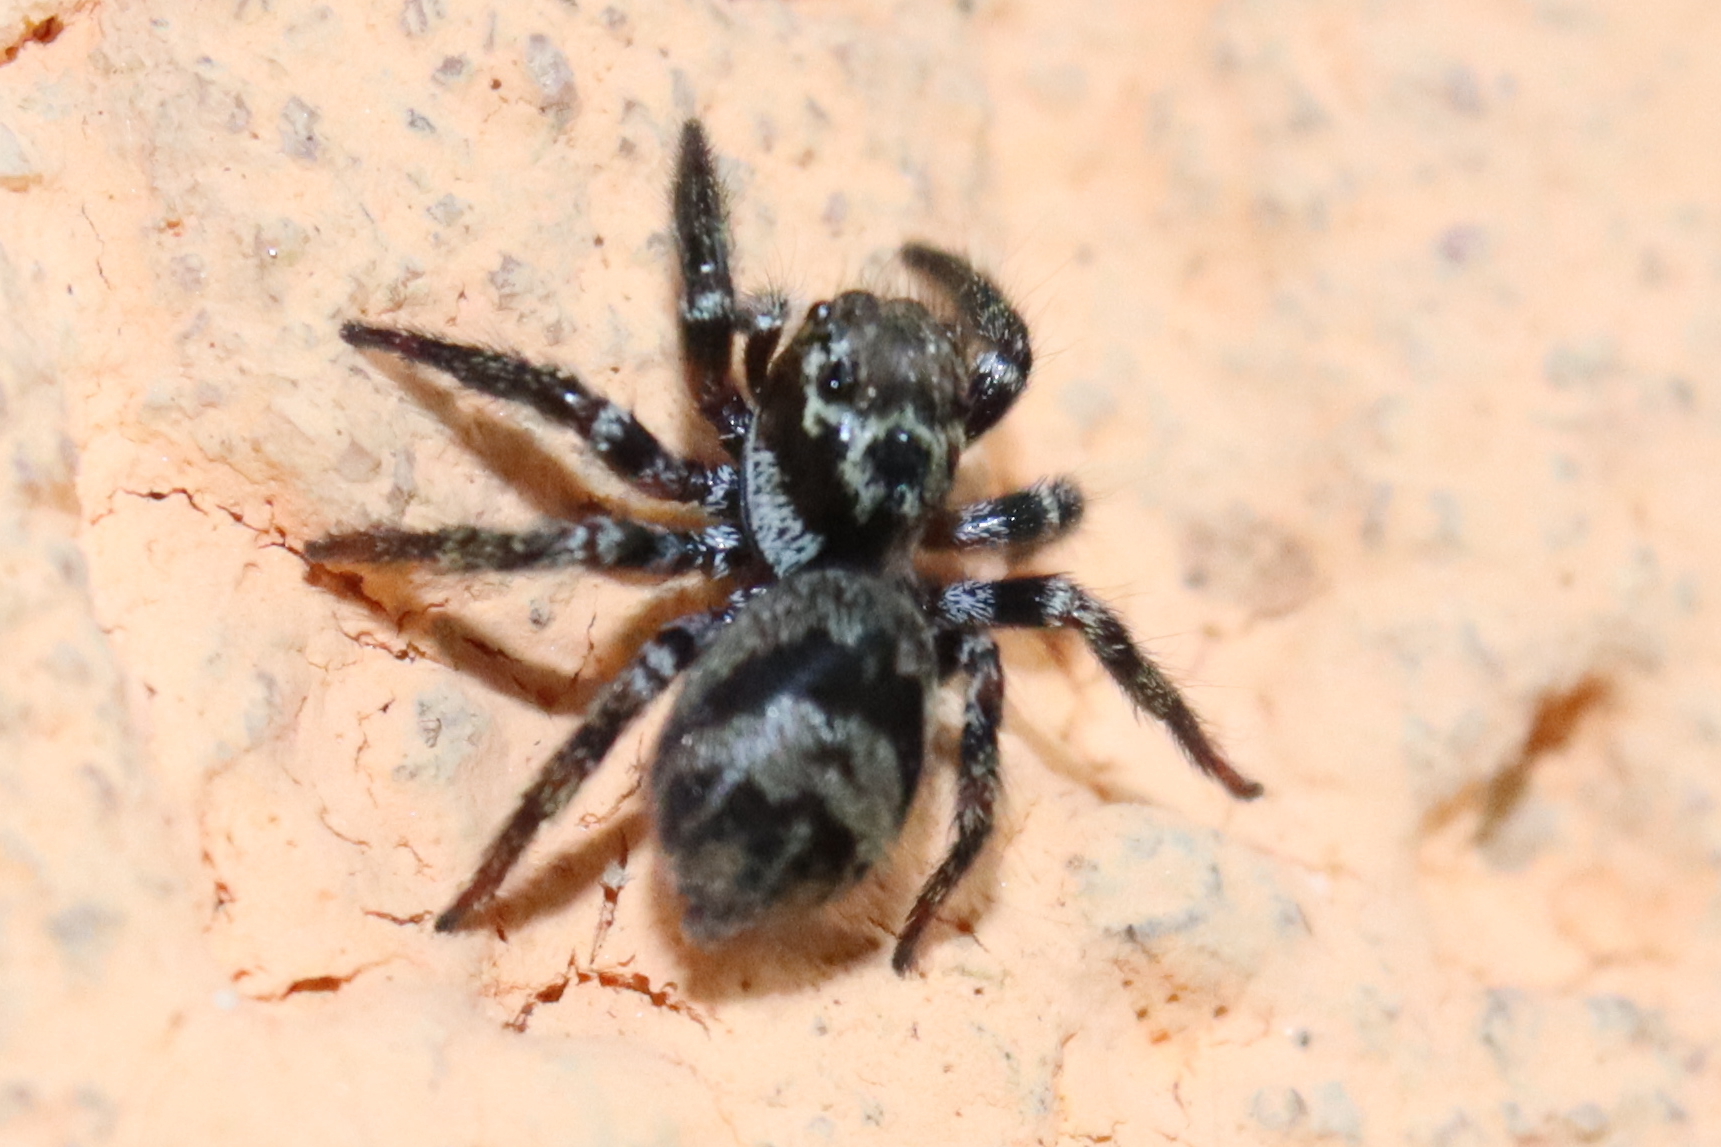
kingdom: Animalia
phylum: Arthropoda
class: Arachnida
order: Araneae
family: Salticidae
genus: Corythalia
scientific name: Corythalia conferta
